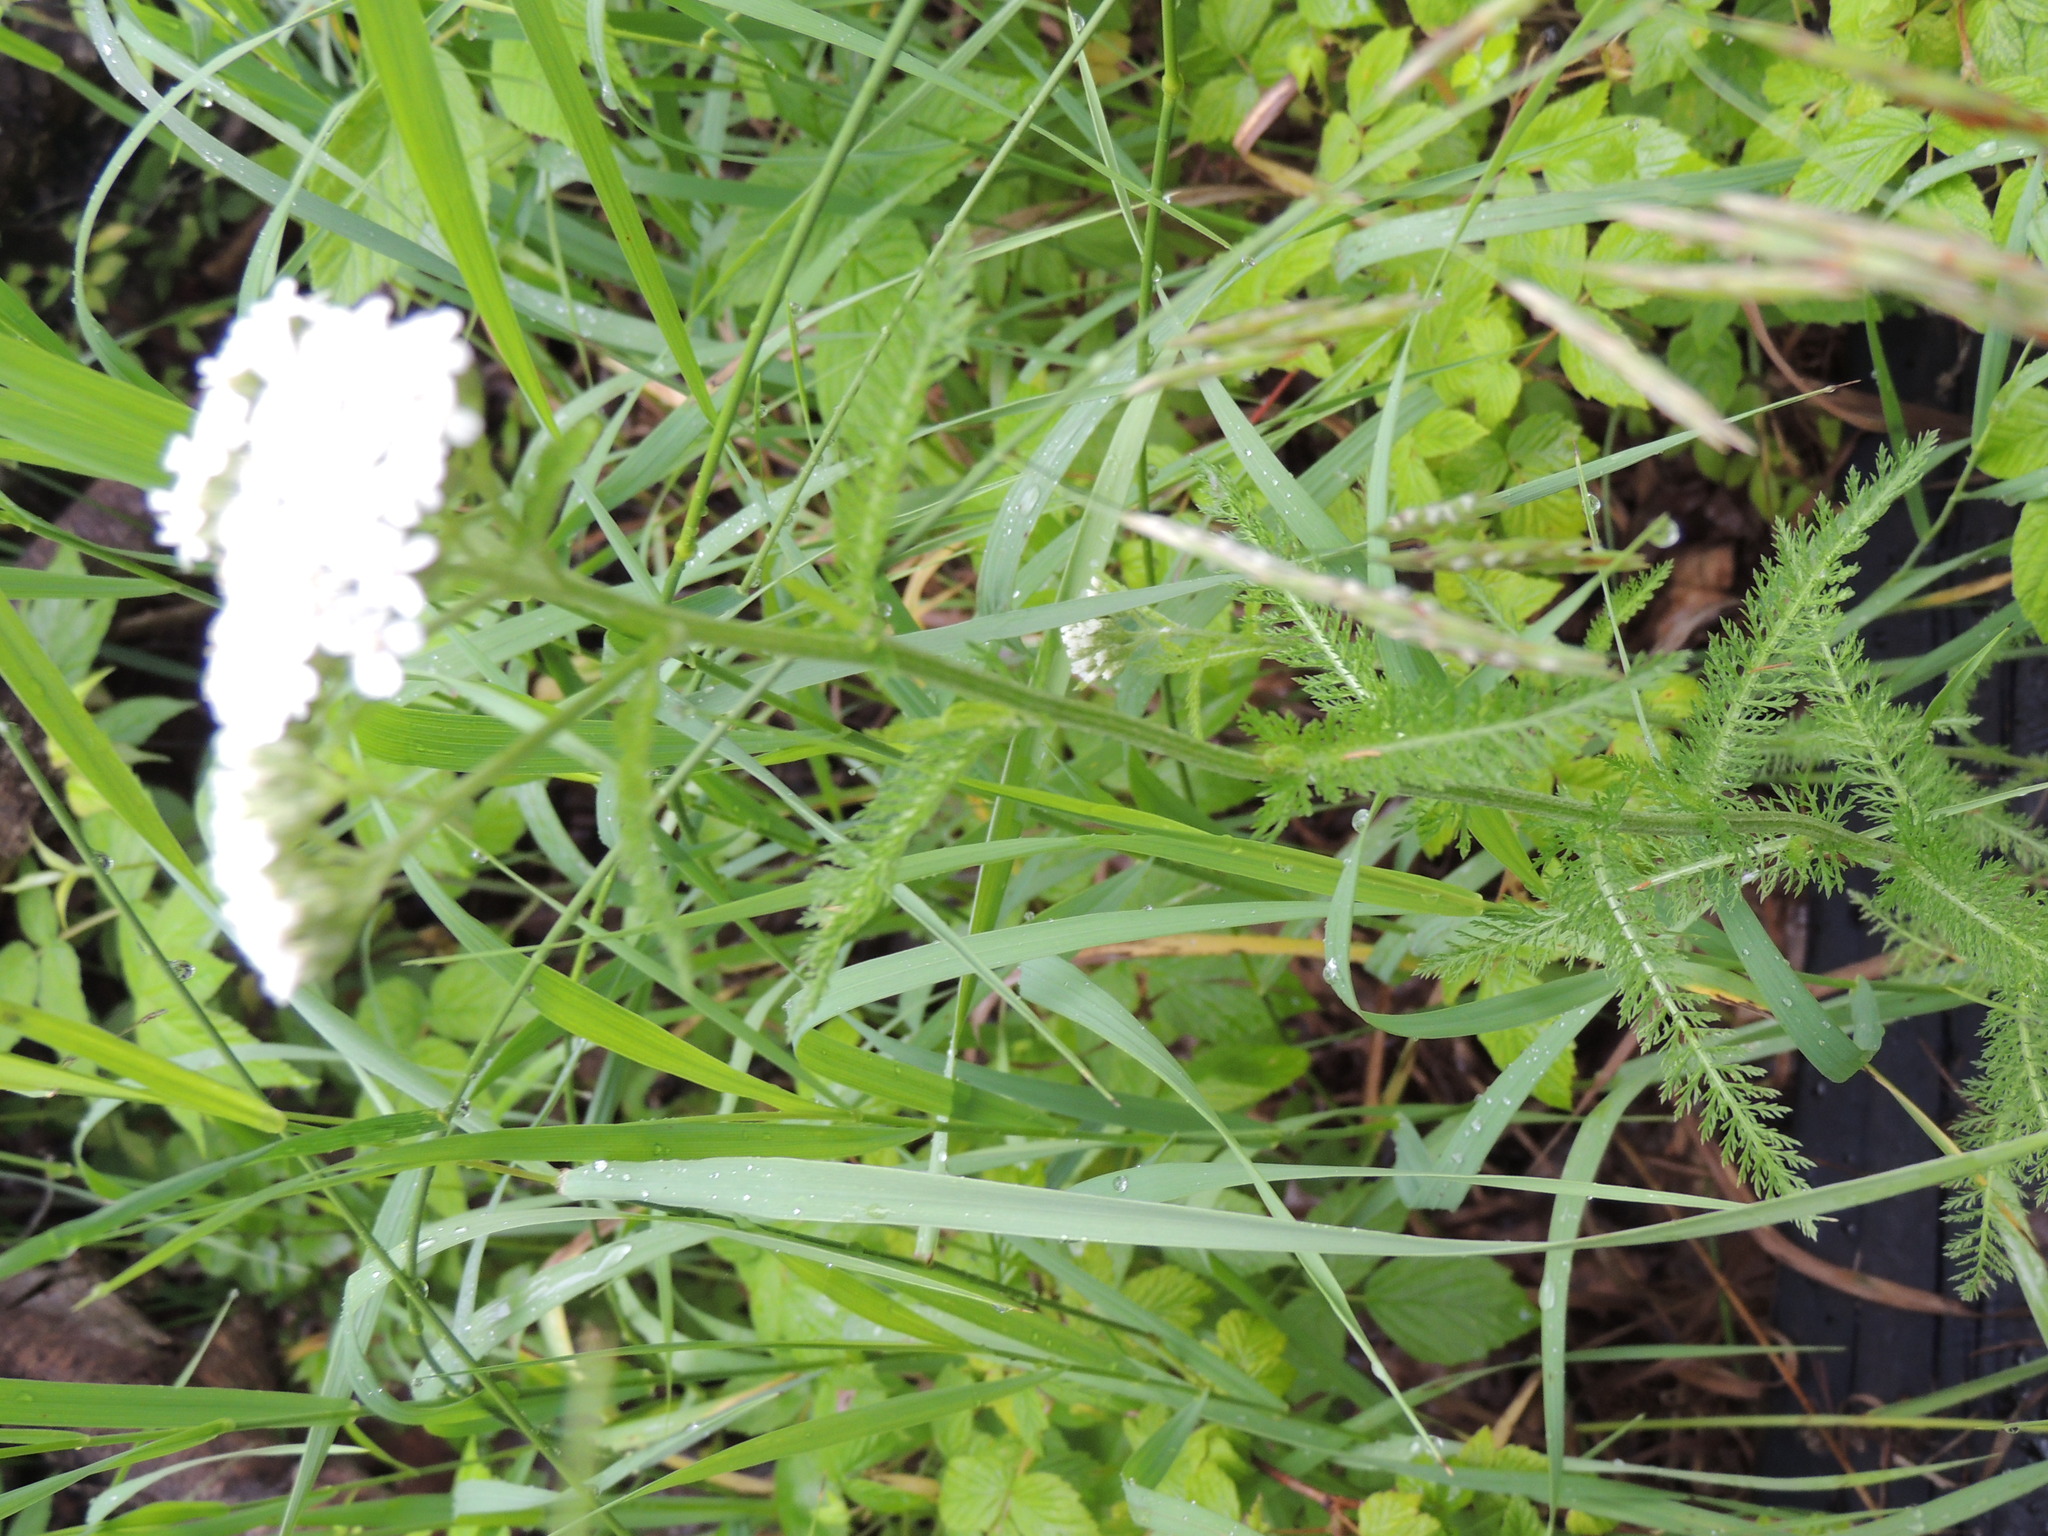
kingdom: Plantae
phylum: Tracheophyta
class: Magnoliopsida
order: Asterales
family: Asteraceae
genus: Achillea
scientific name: Achillea millefolium
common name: Yarrow
